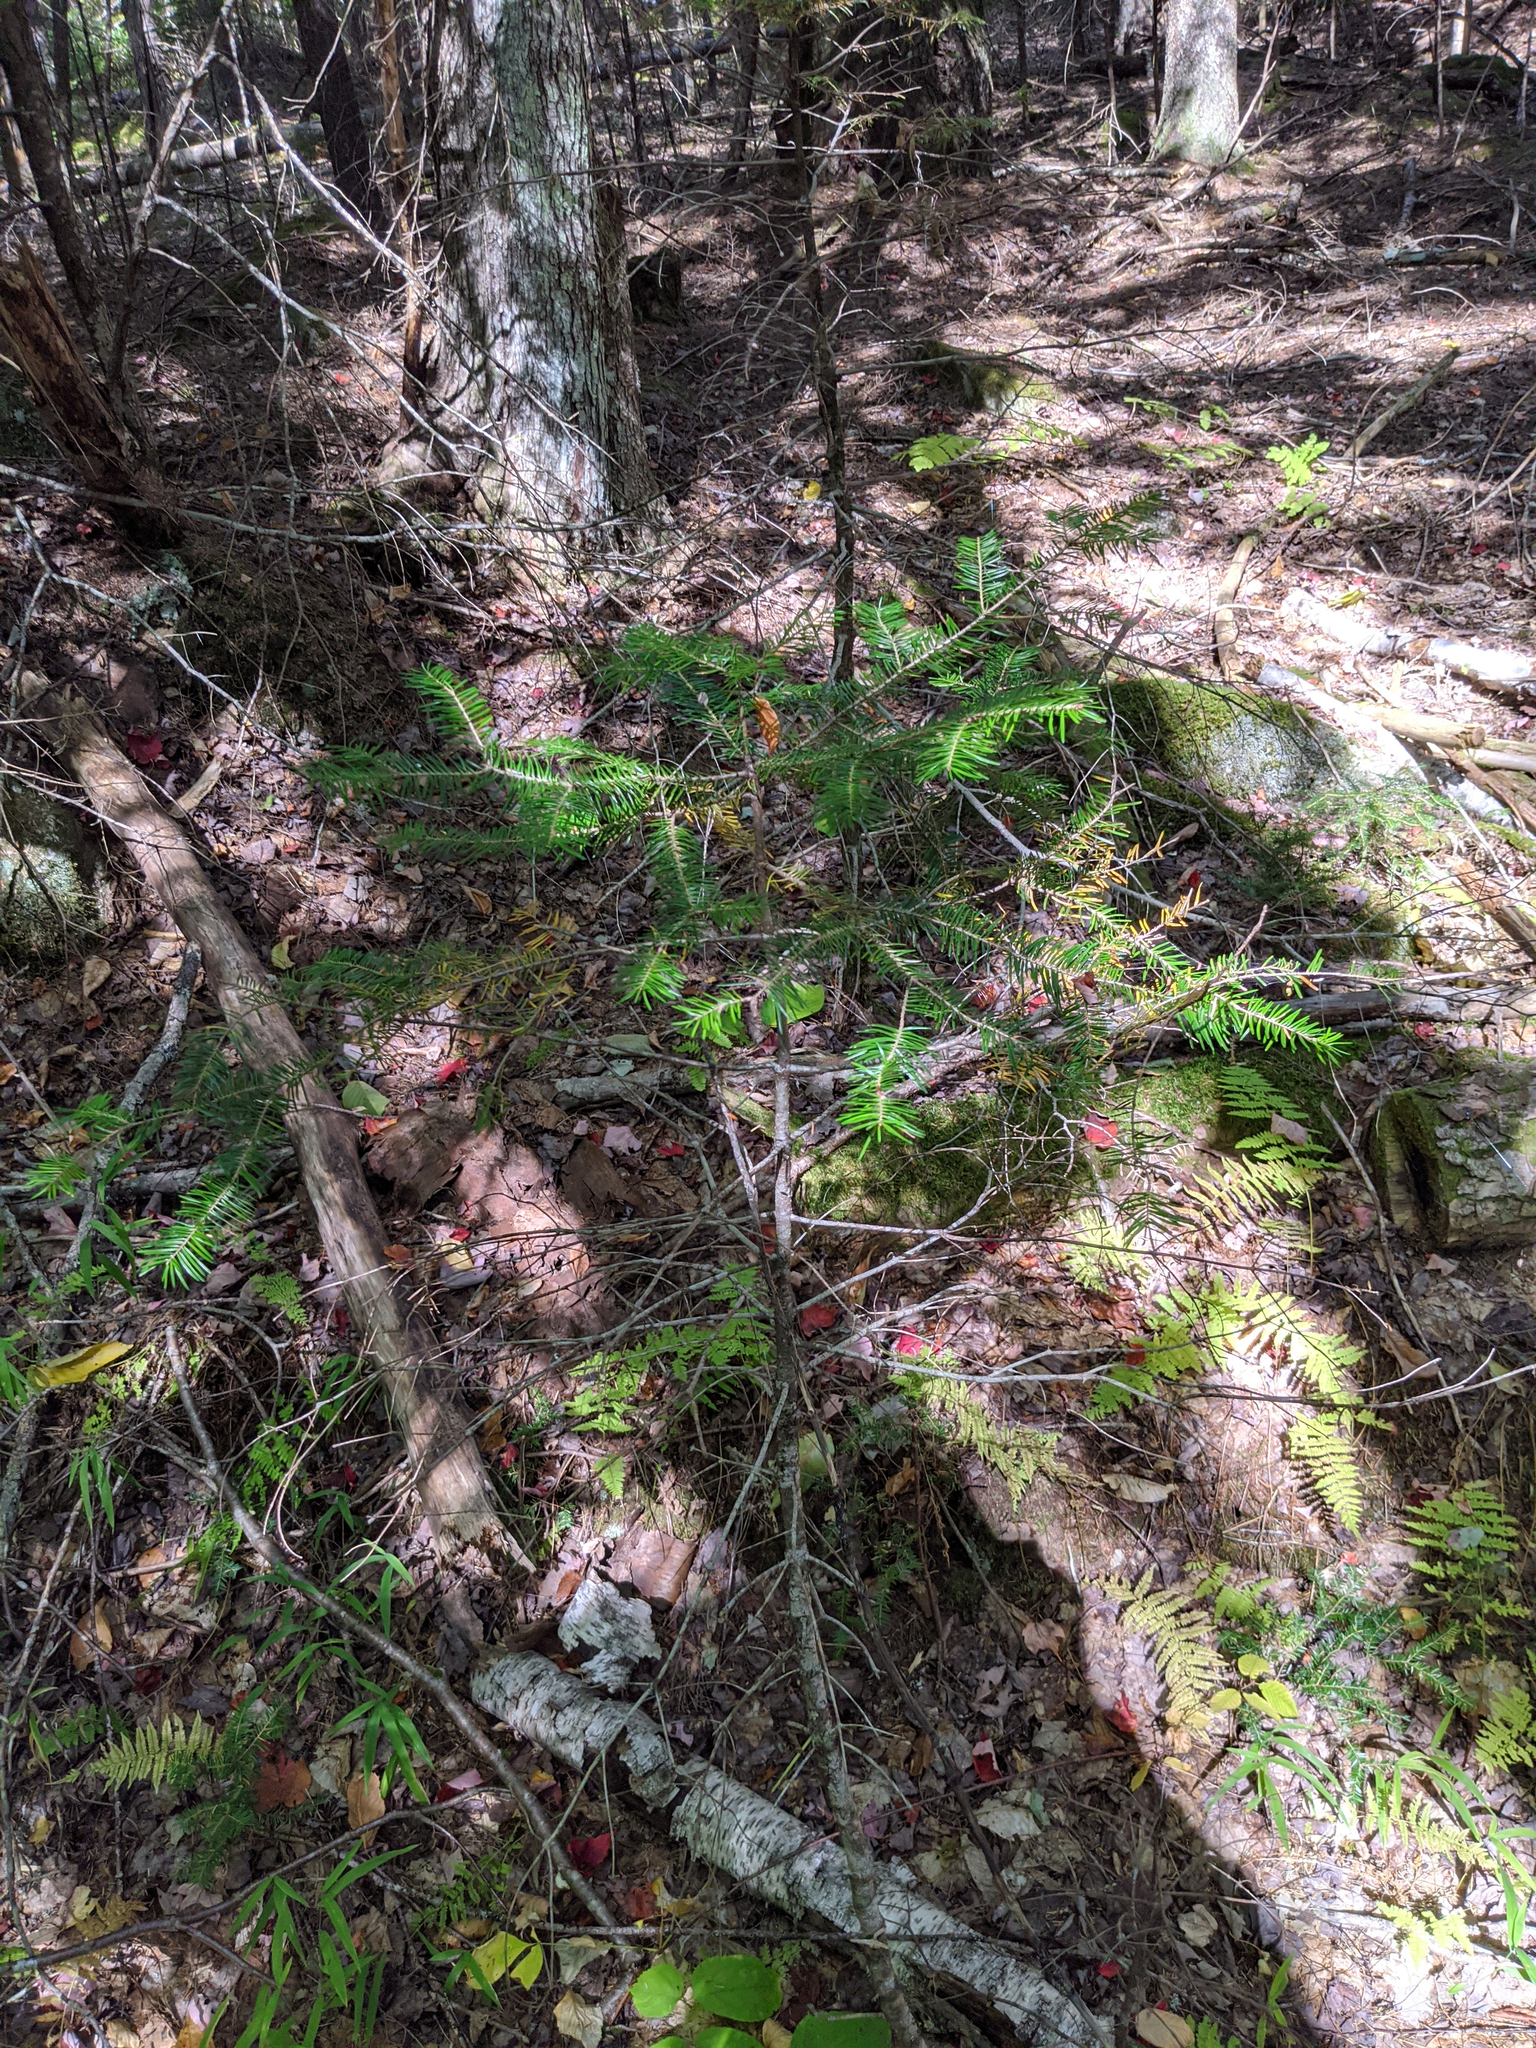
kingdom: Plantae
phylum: Tracheophyta
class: Pinopsida
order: Pinales
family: Pinaceae
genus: Abies
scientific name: Abies balsamea
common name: Balsam fir
